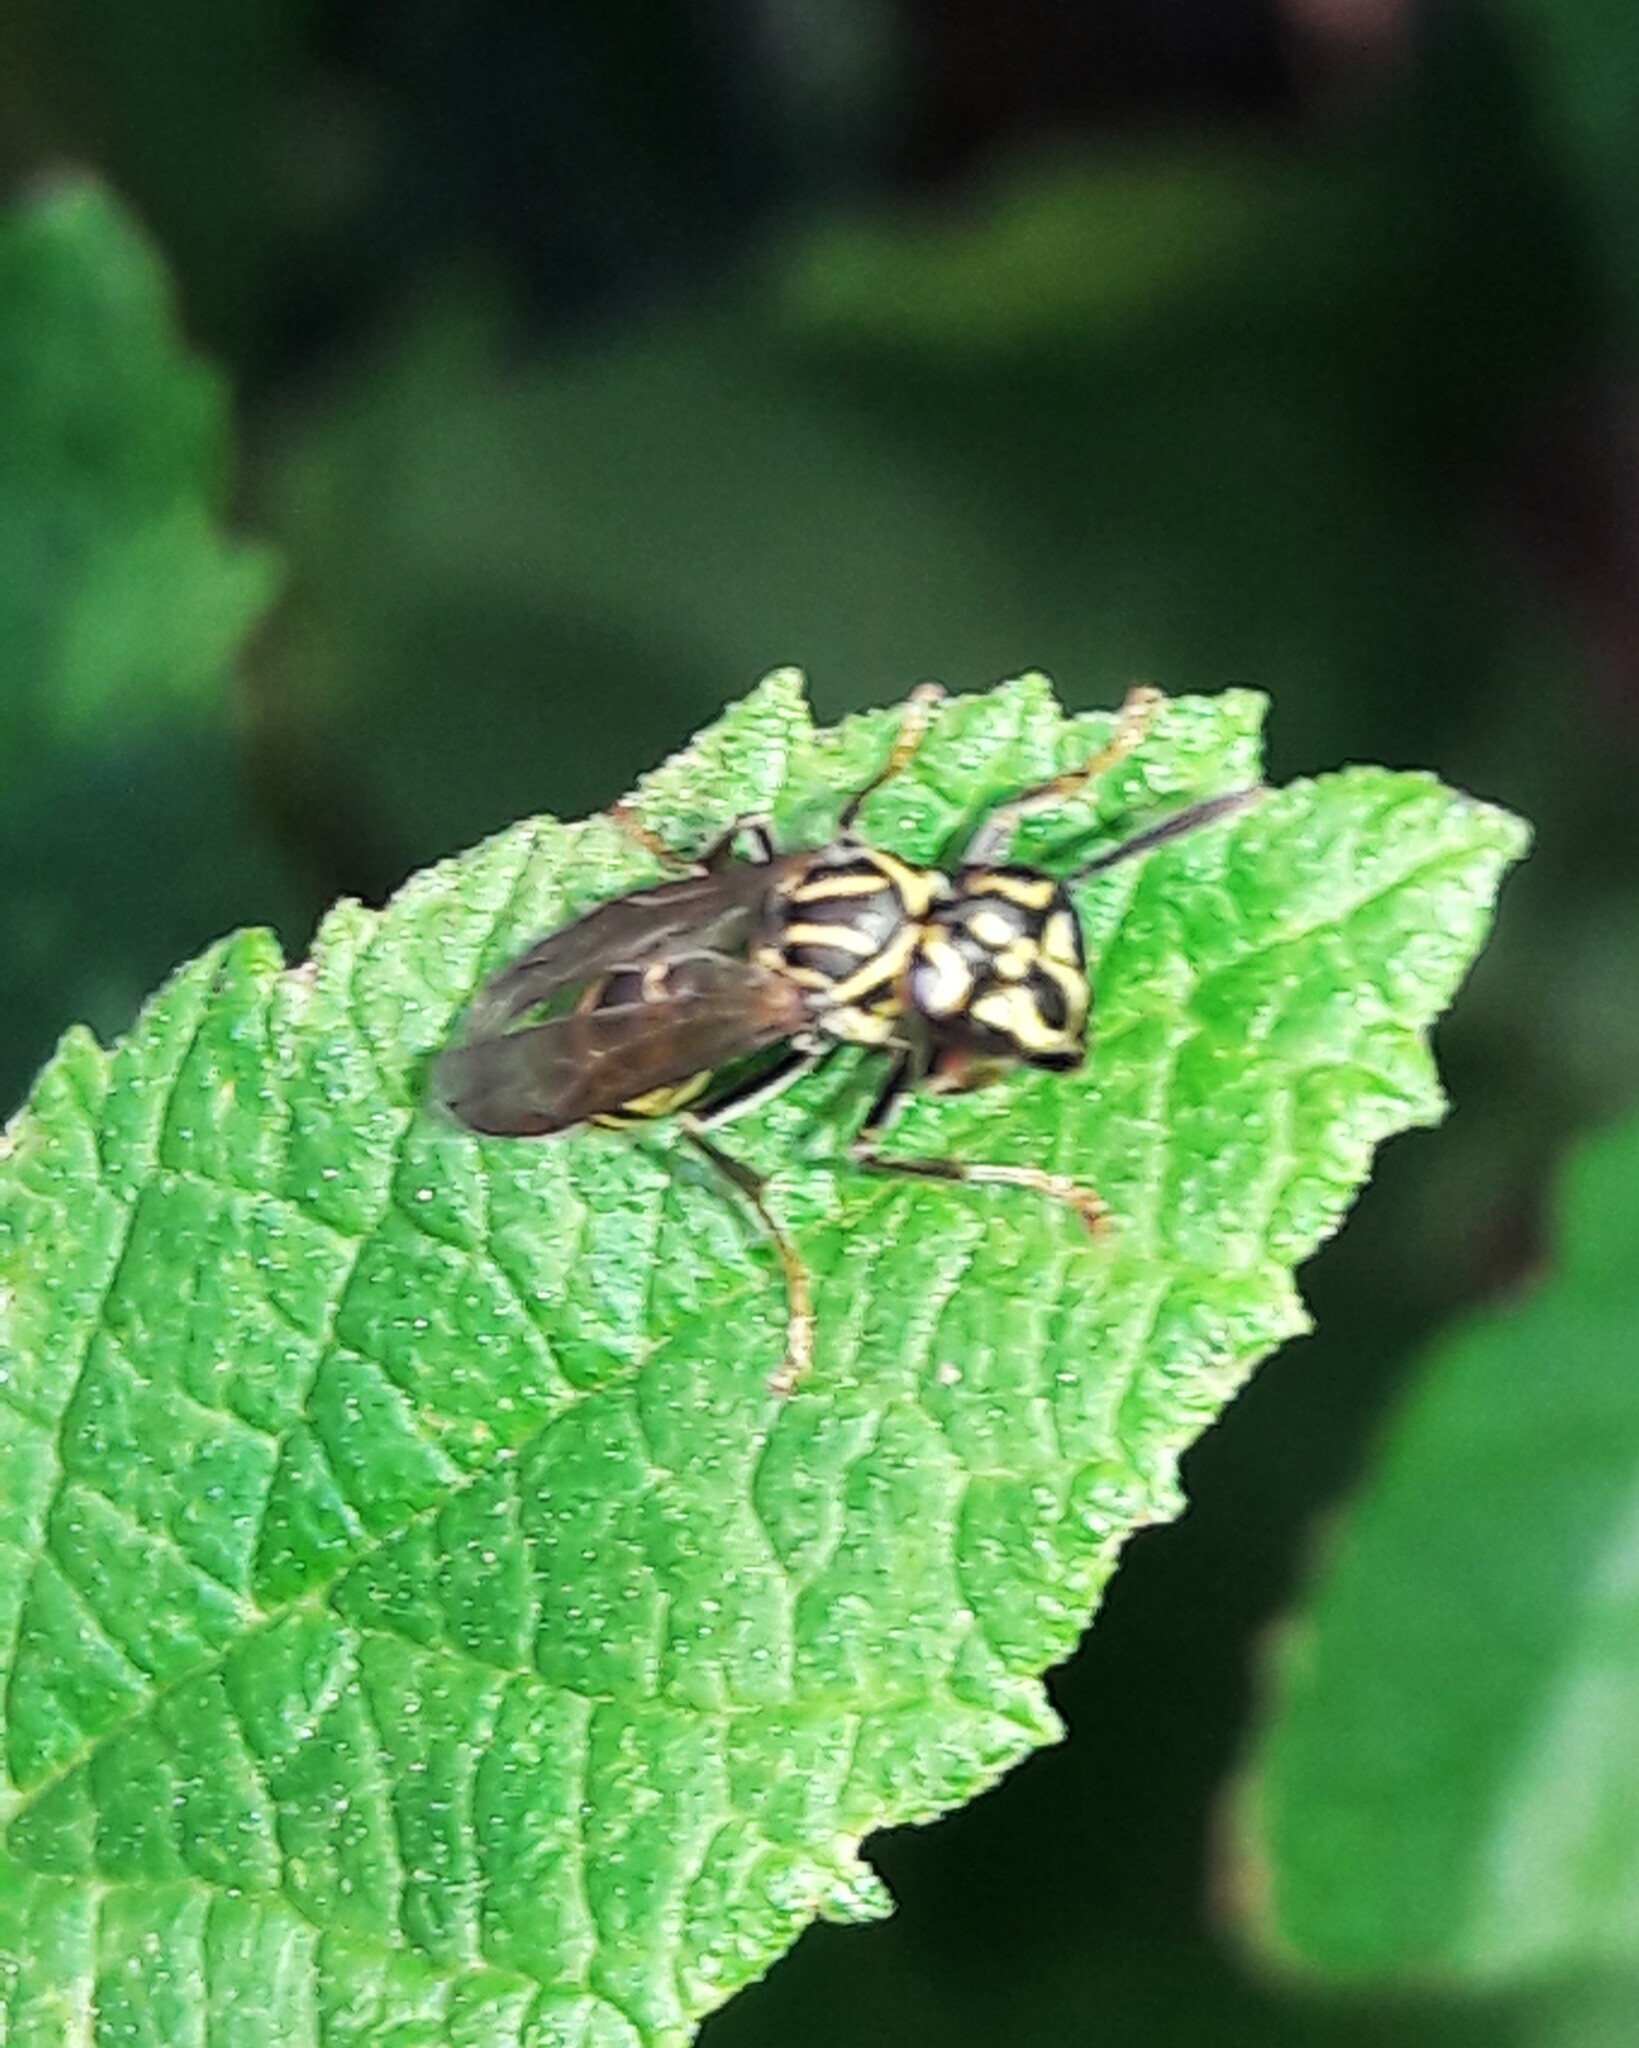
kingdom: Animalia
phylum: Arthropoda
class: Insecta
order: Hymenoptera
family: Eumenidae
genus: Polybia
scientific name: Polybia fastidiosuscula
